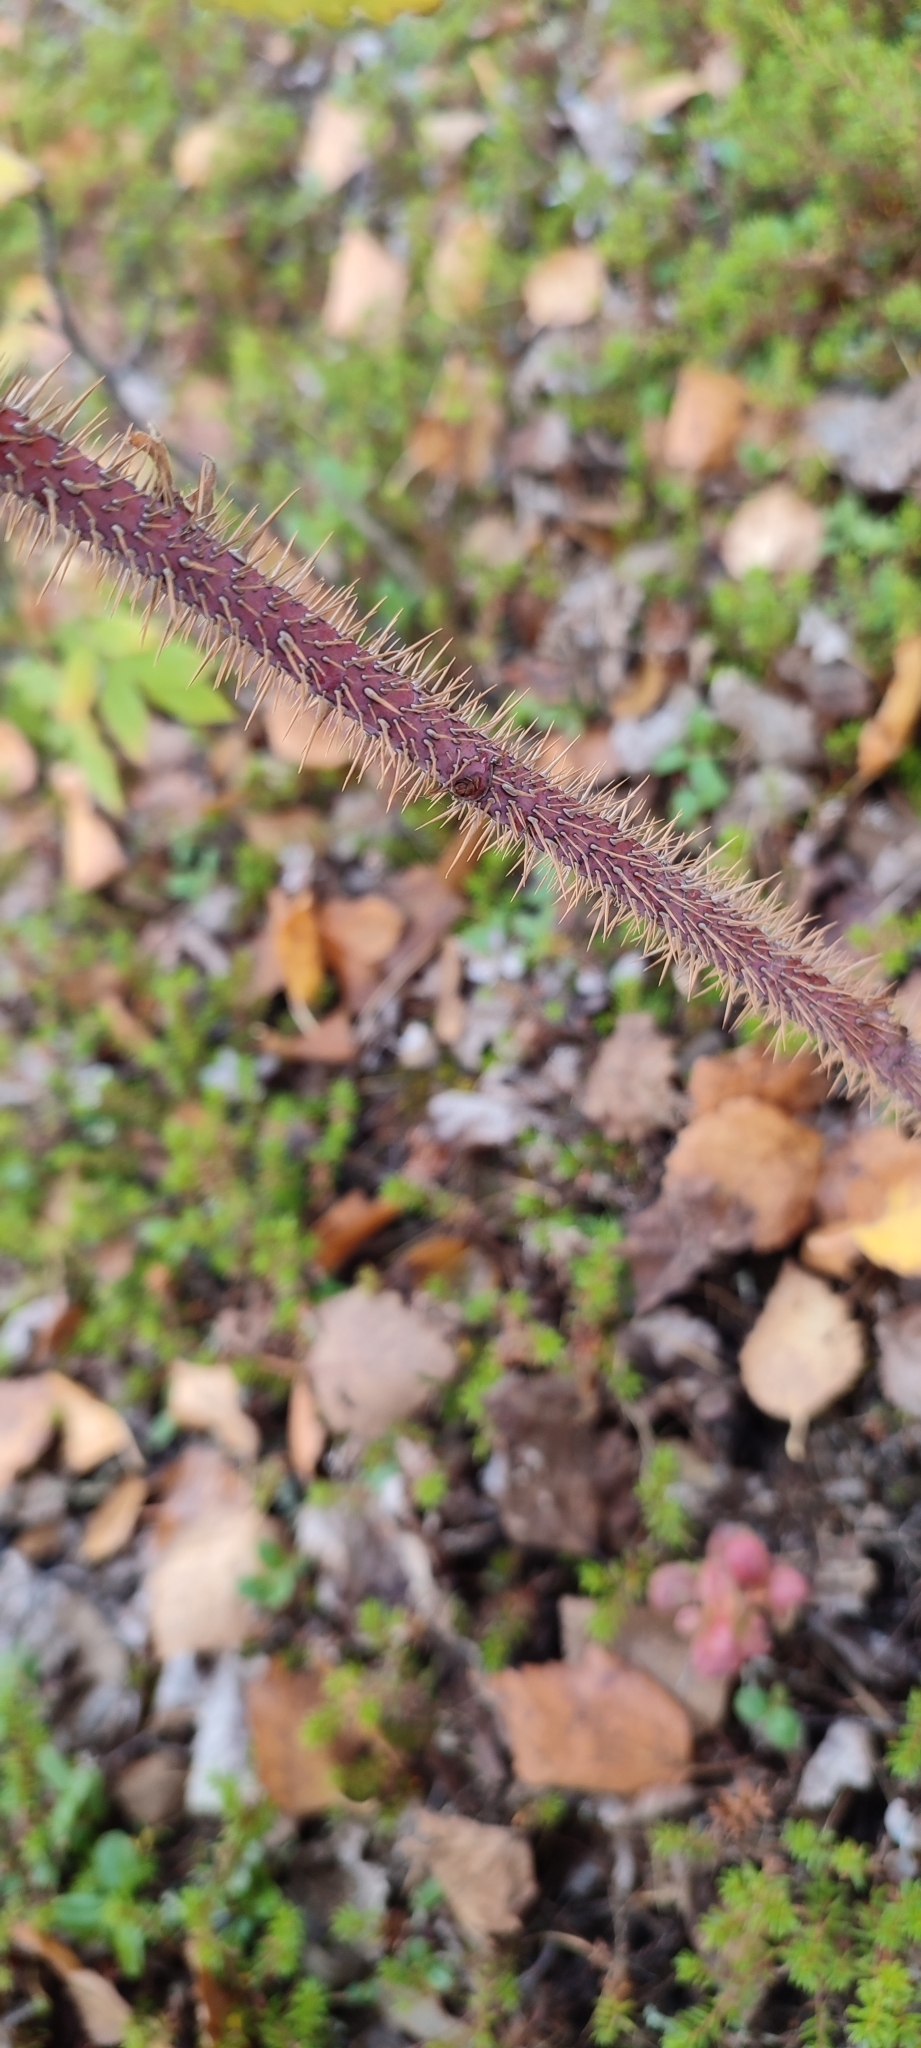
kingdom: Plantae
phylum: Tracheophyta
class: Magnoliopsida
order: Rosales
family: Rosaceae
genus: Rosa
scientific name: Rosa acicularis
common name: Prickly rose
